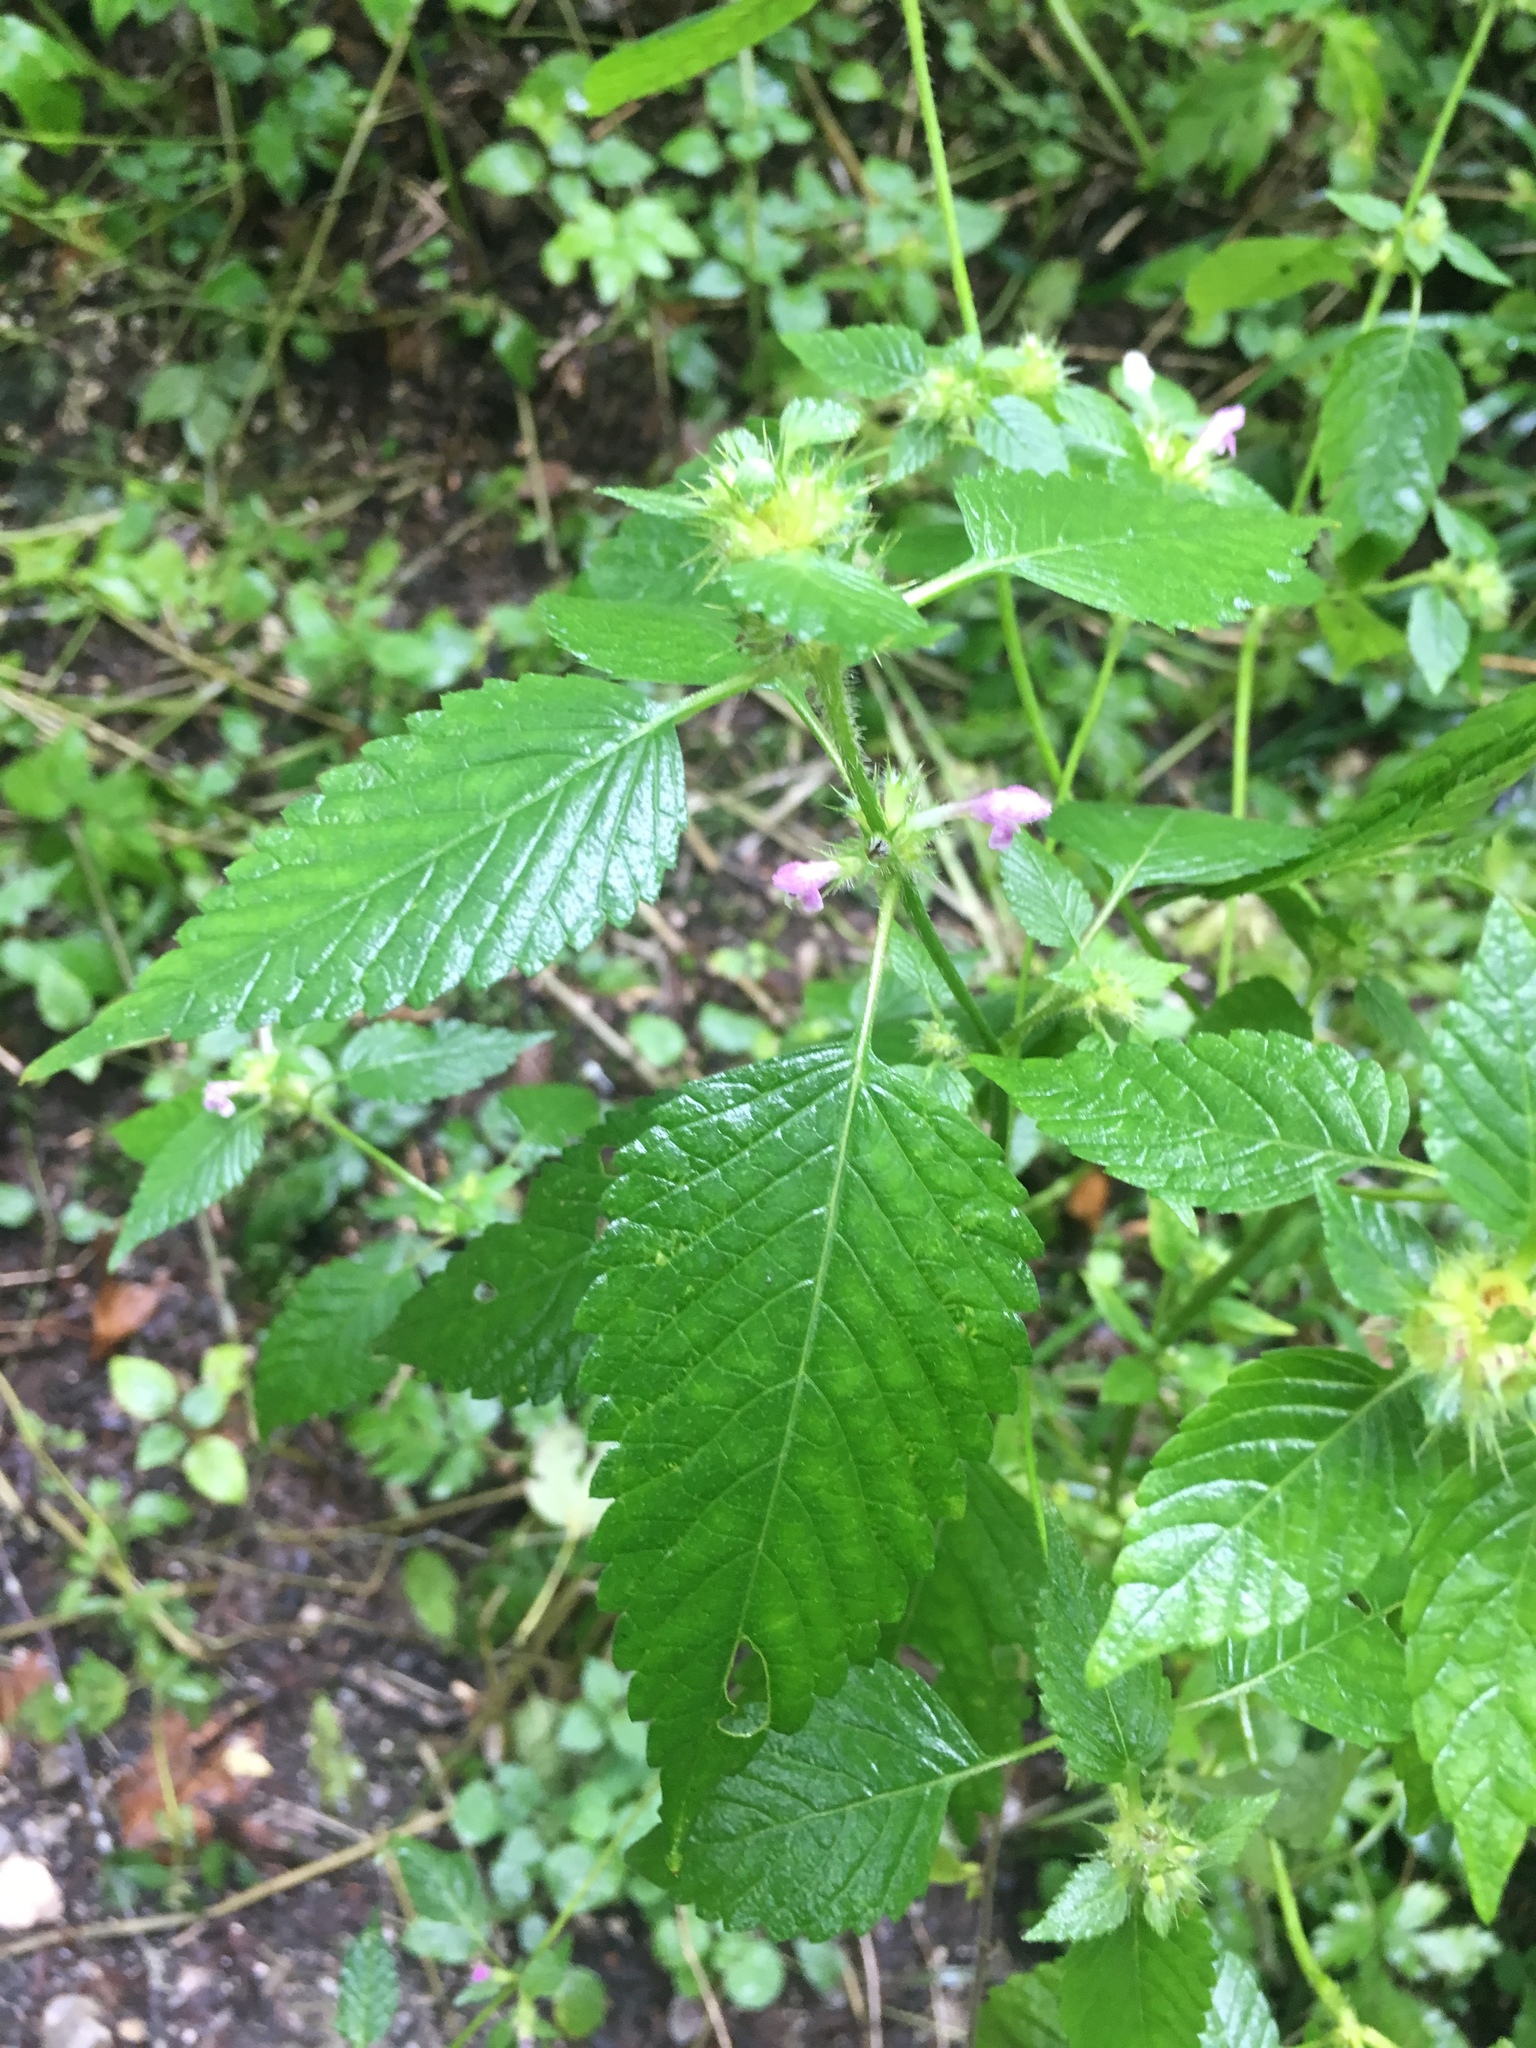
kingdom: Plantae
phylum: Tracheophyta
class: Magnoliopsida
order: Lamiales
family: Lamiaceae
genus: Galeopsis
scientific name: Galeopsis tetrahit
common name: Common hemp-nettle
